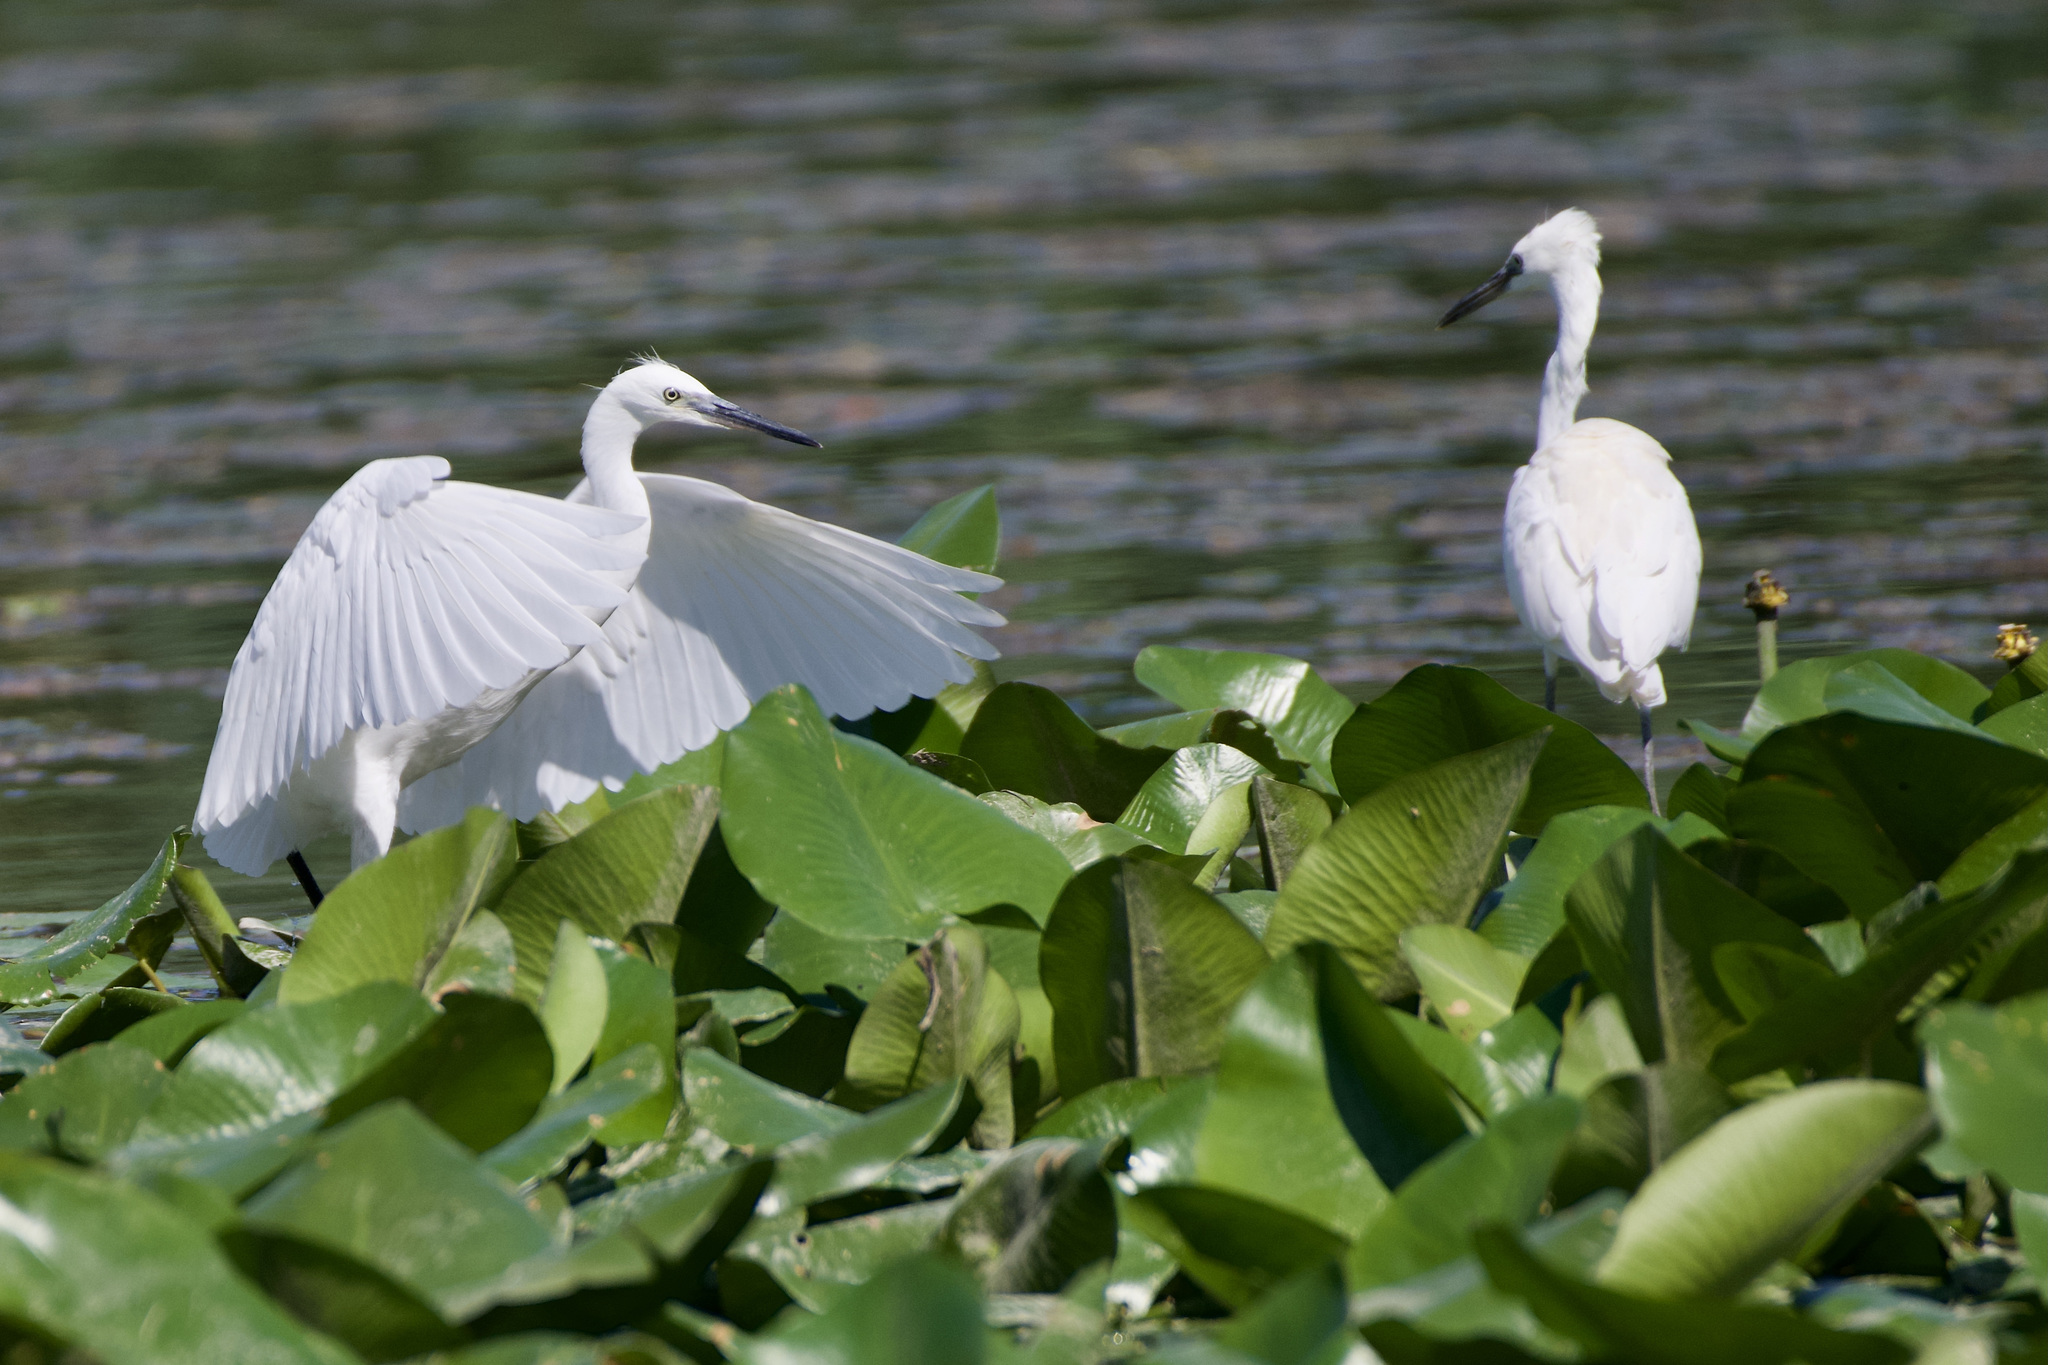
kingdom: Animalia
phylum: Chordata
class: Aves
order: Pelecaniformes
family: Ardeidae
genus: Egretta
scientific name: Egretta garzetta
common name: Little egret
